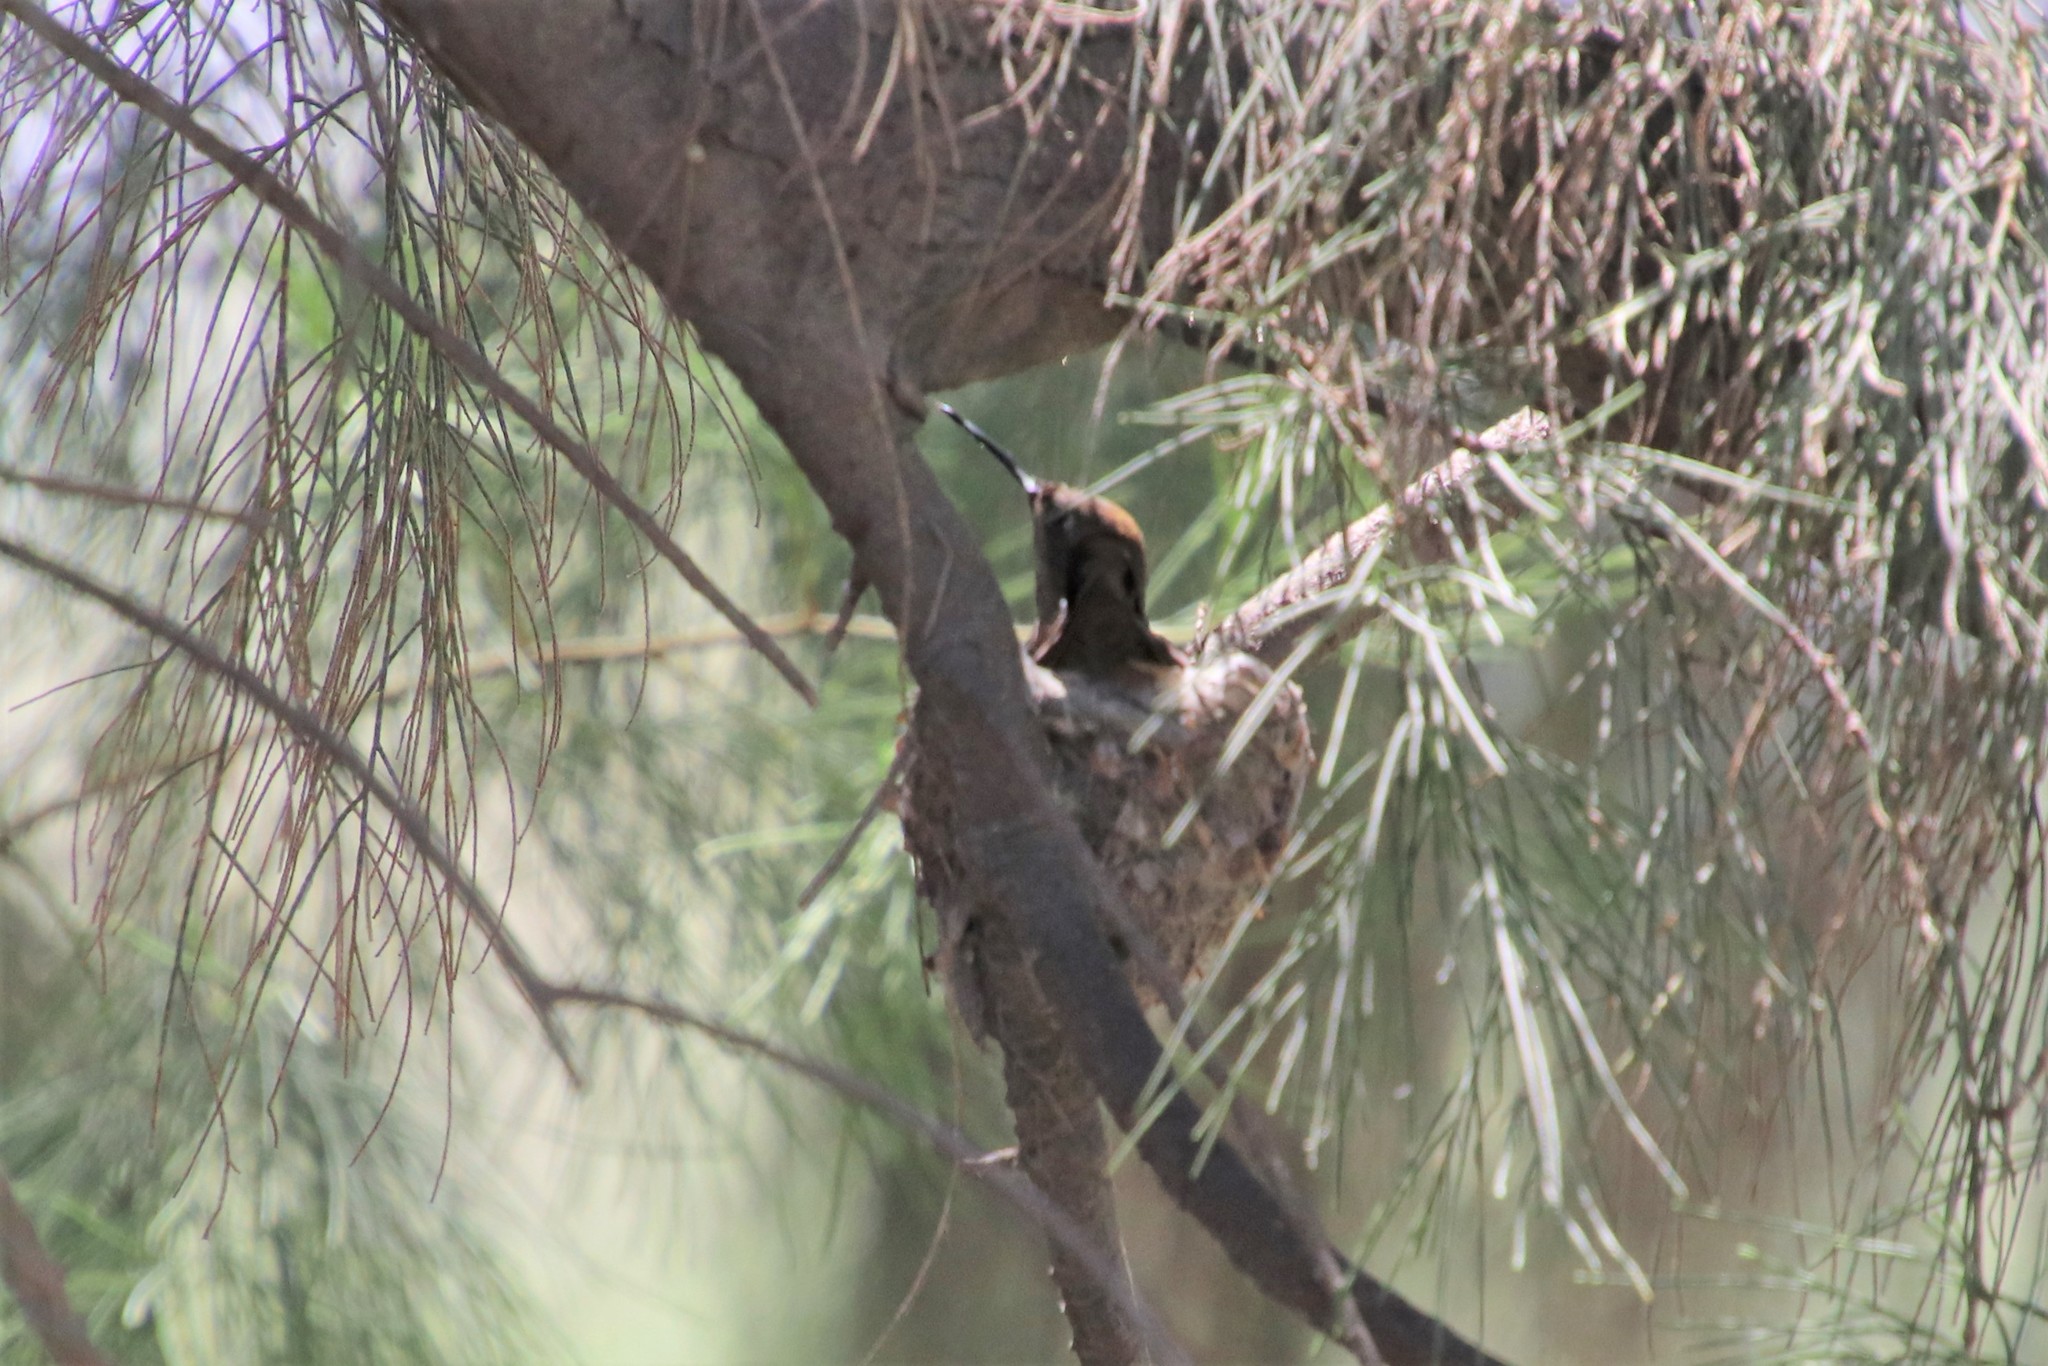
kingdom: Animalia
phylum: Chordata
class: Aves
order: Apodiformes
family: Trochilidae
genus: Calypte
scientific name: Calypte anna
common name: Anna's hummingbird
